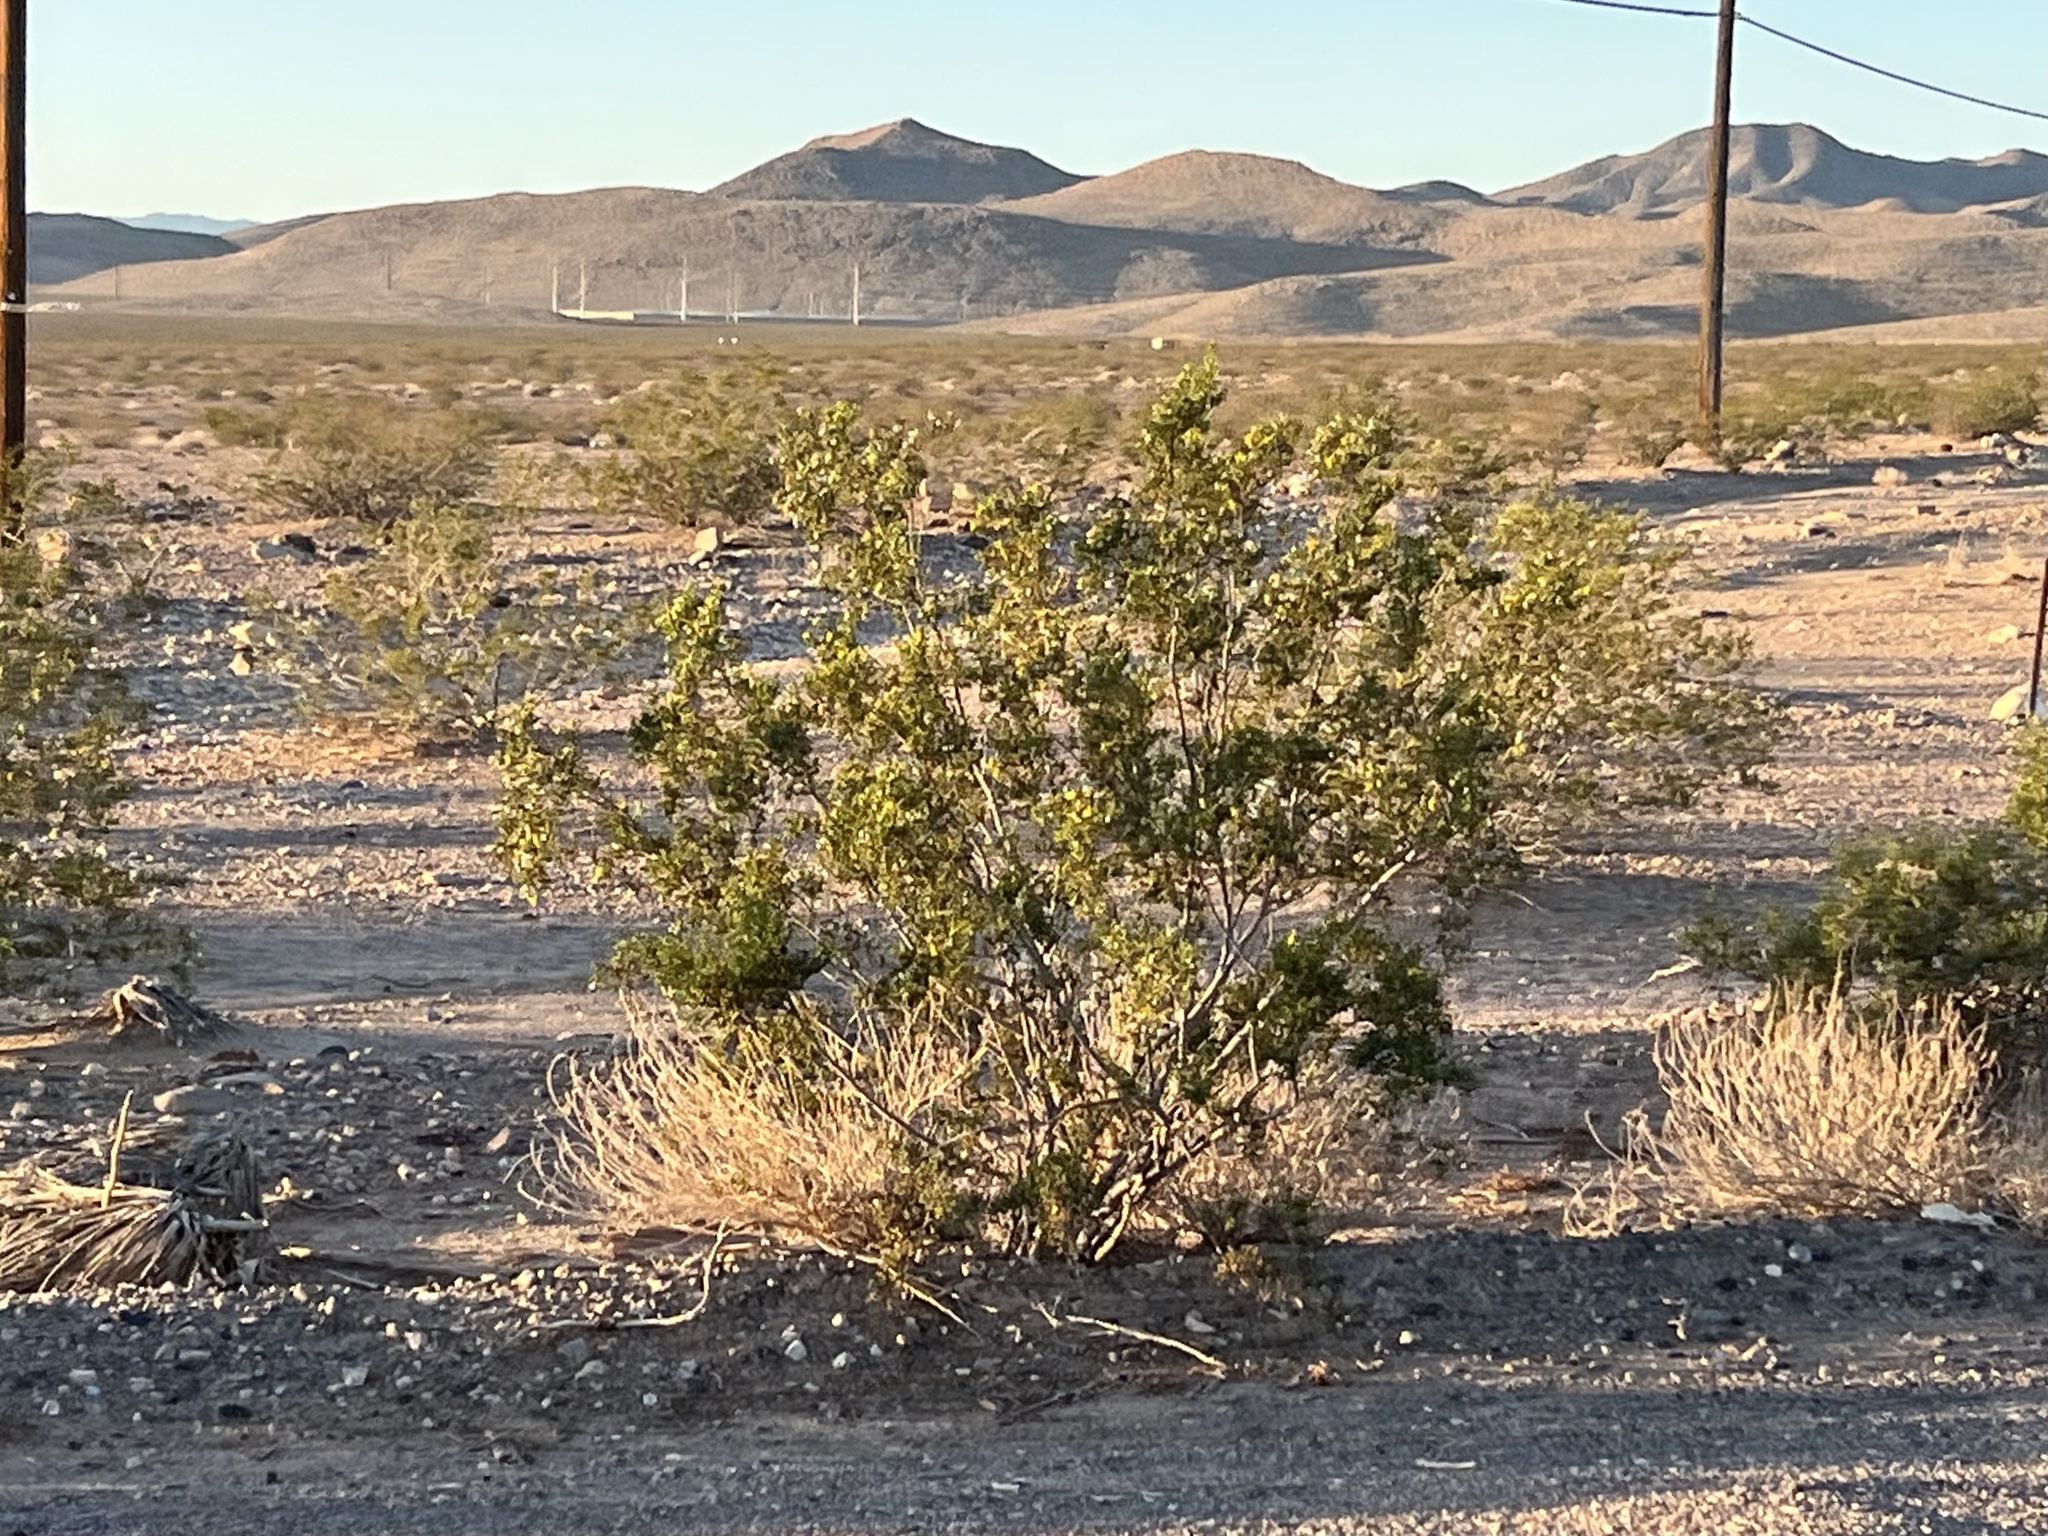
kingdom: Plantae
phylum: Tracheophyta
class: Magnoliopsida
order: Zygophyllales
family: Zygophyllaceae
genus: Larrea
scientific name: Larrea tridentata
